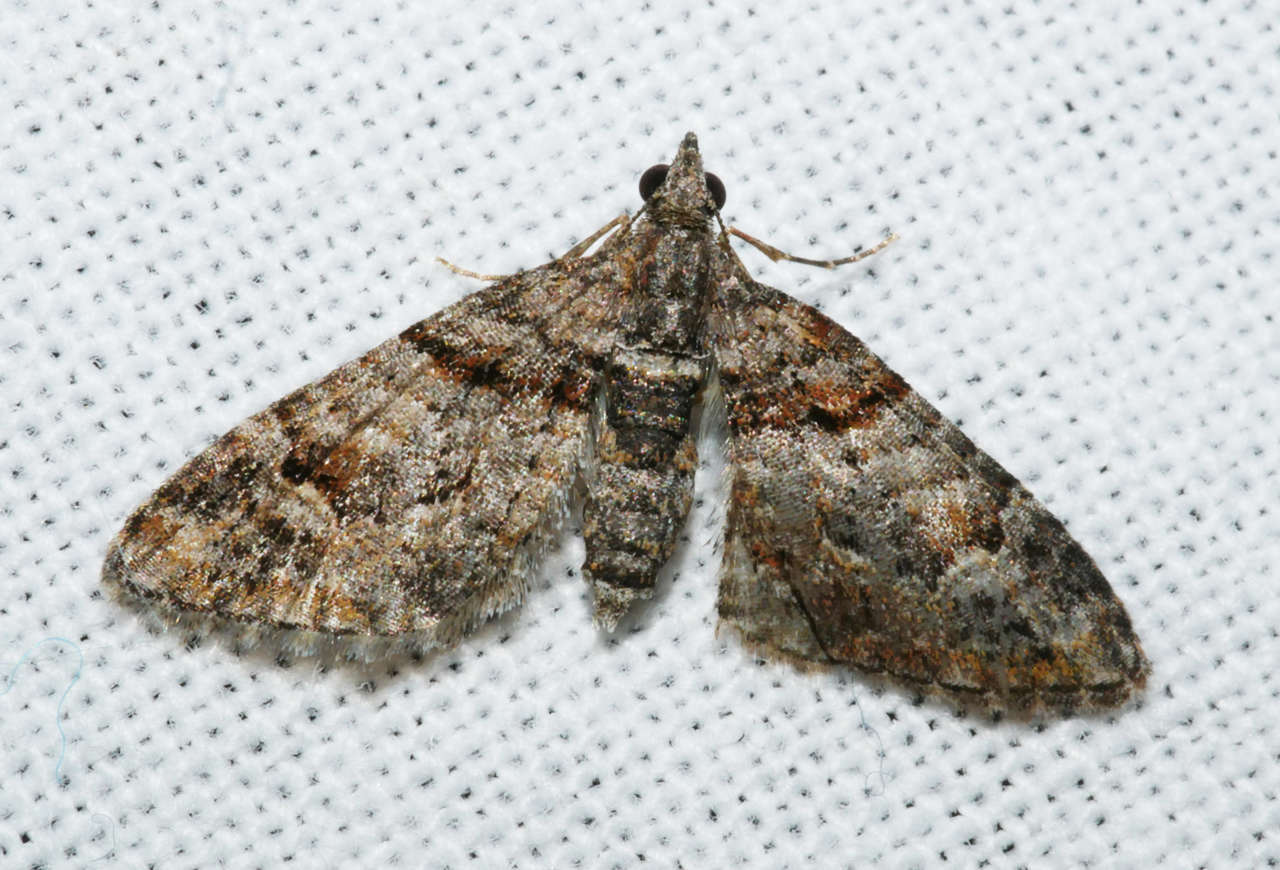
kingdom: Animalia
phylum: Arthropoda
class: Insecta
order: Lepidoptera
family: Geometridae
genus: Phrissogonus
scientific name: Phrissogonus laticostata
